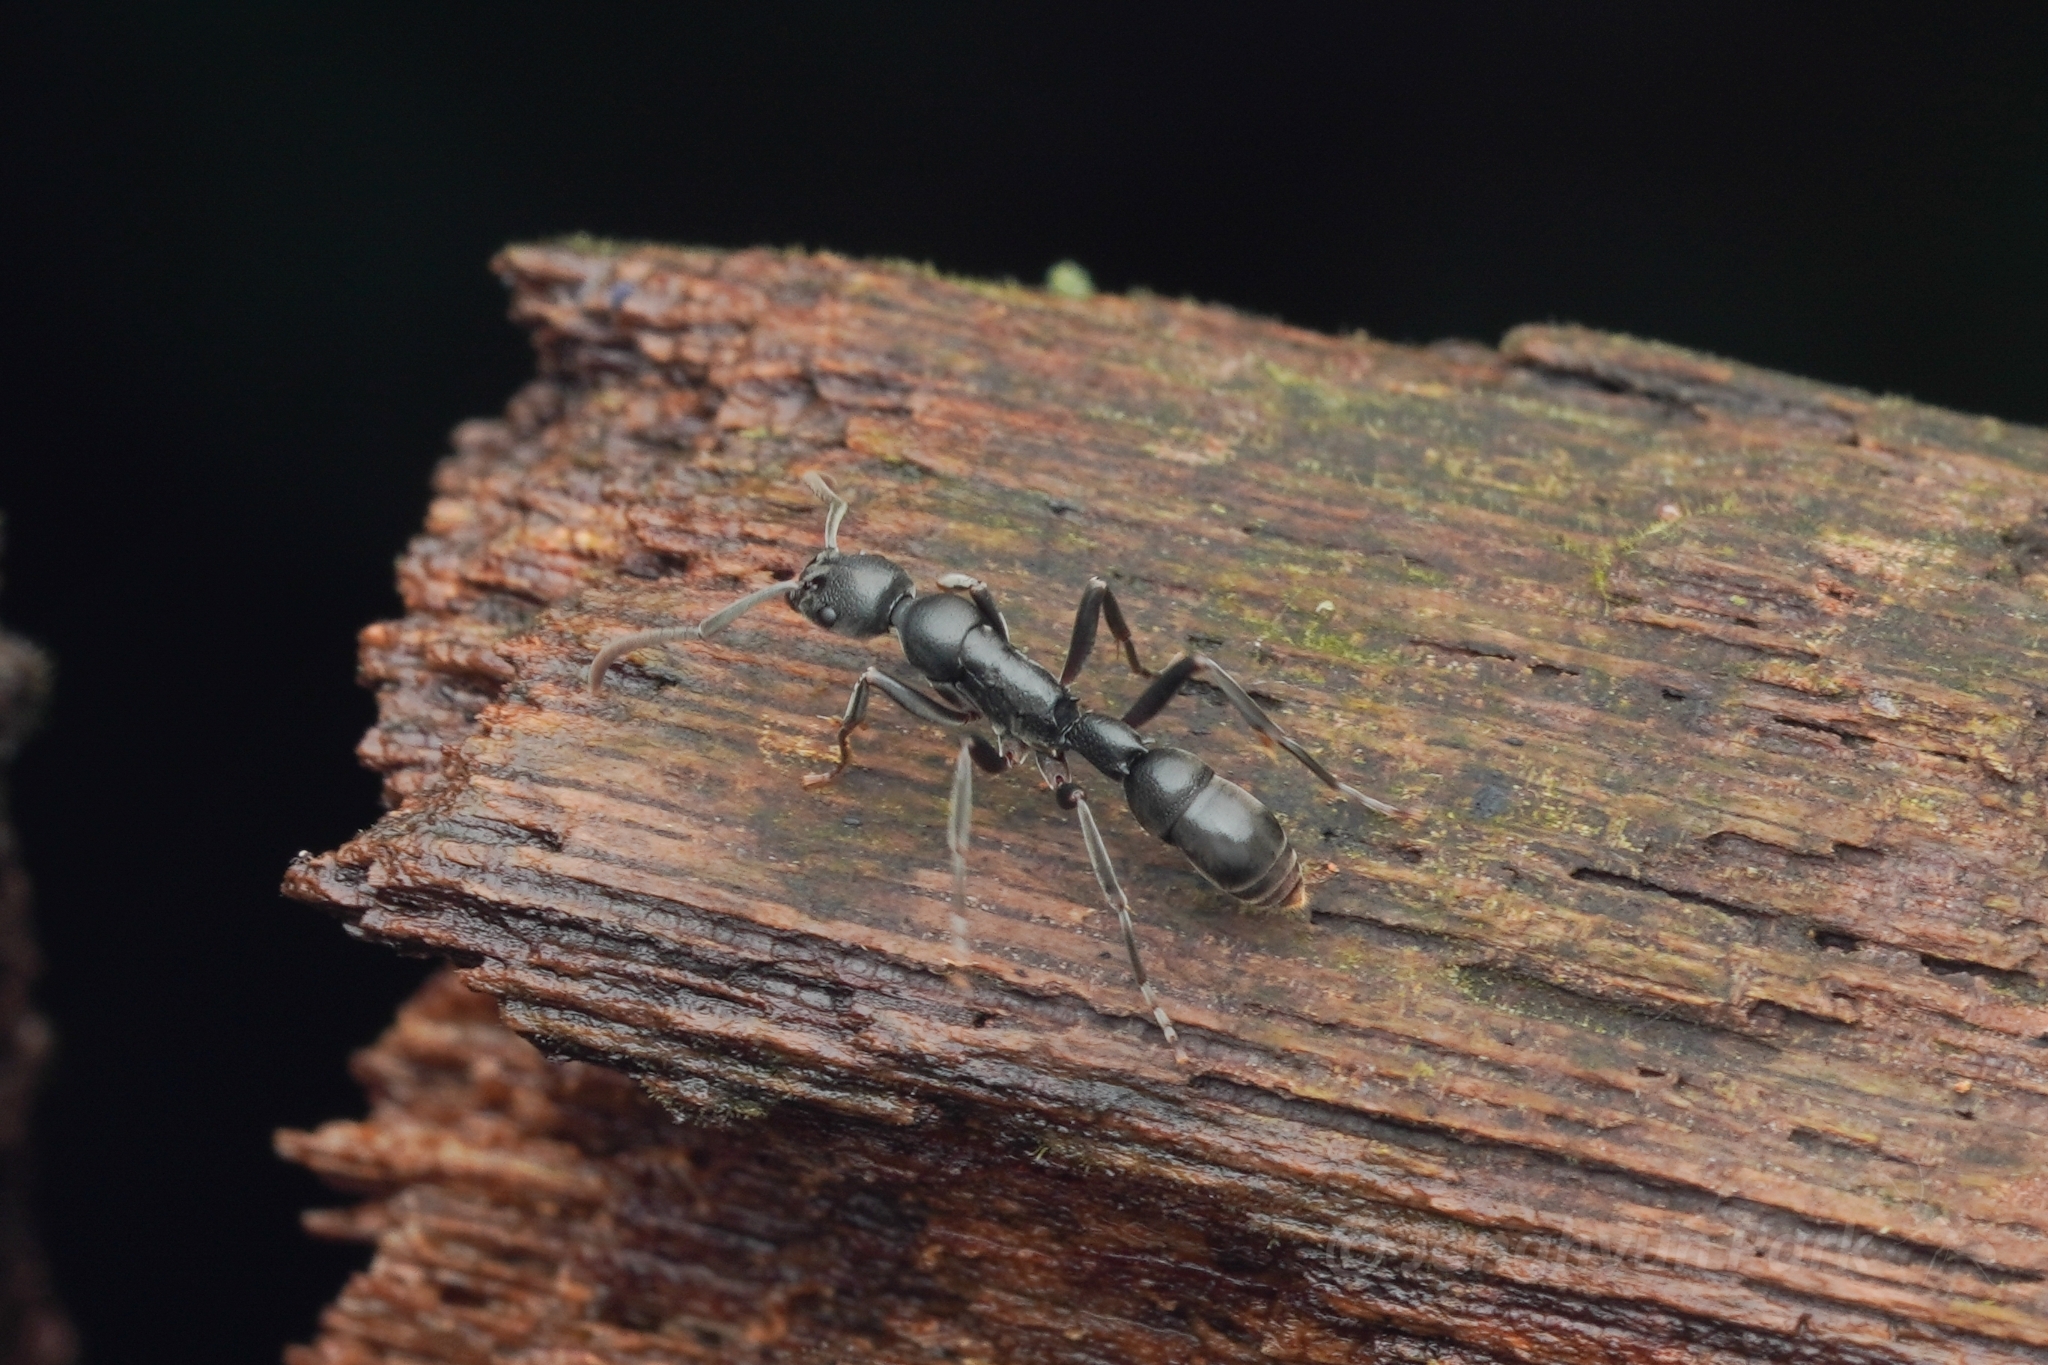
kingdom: Animalia
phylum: Arthropoda
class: Insecta
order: Hymenoptera
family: Formicidae
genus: Platythyrea
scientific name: Platythyrea tricuspidata
